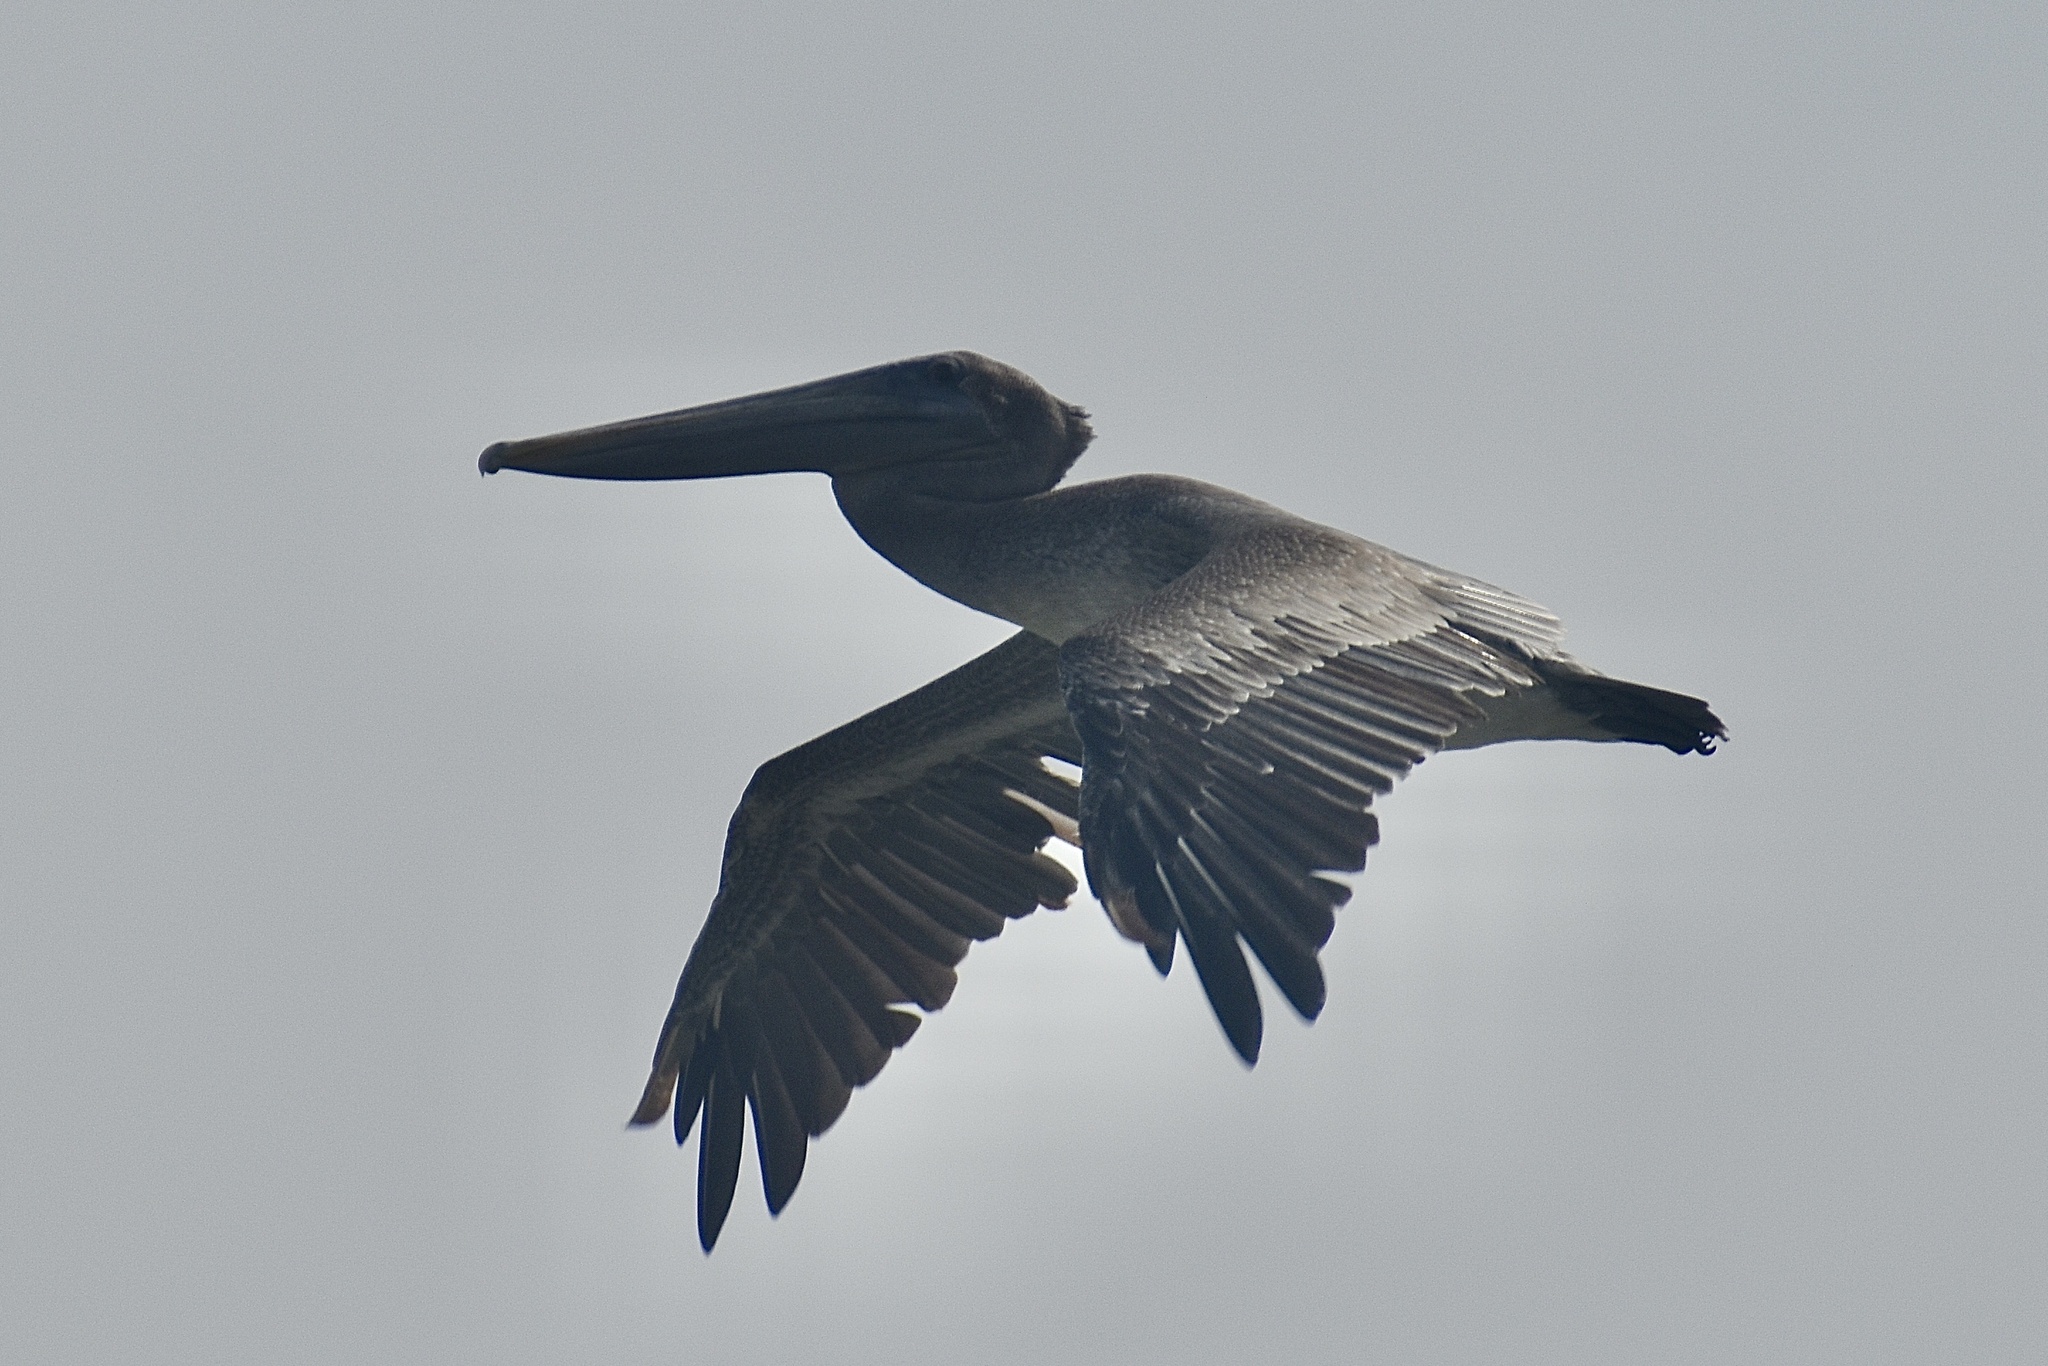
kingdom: Animalia
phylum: Chordata
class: Aves
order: Pelecaniformes
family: Pelecanidae
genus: Pelecanus
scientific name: Pelecanus occidentalis
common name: Brown pelican
